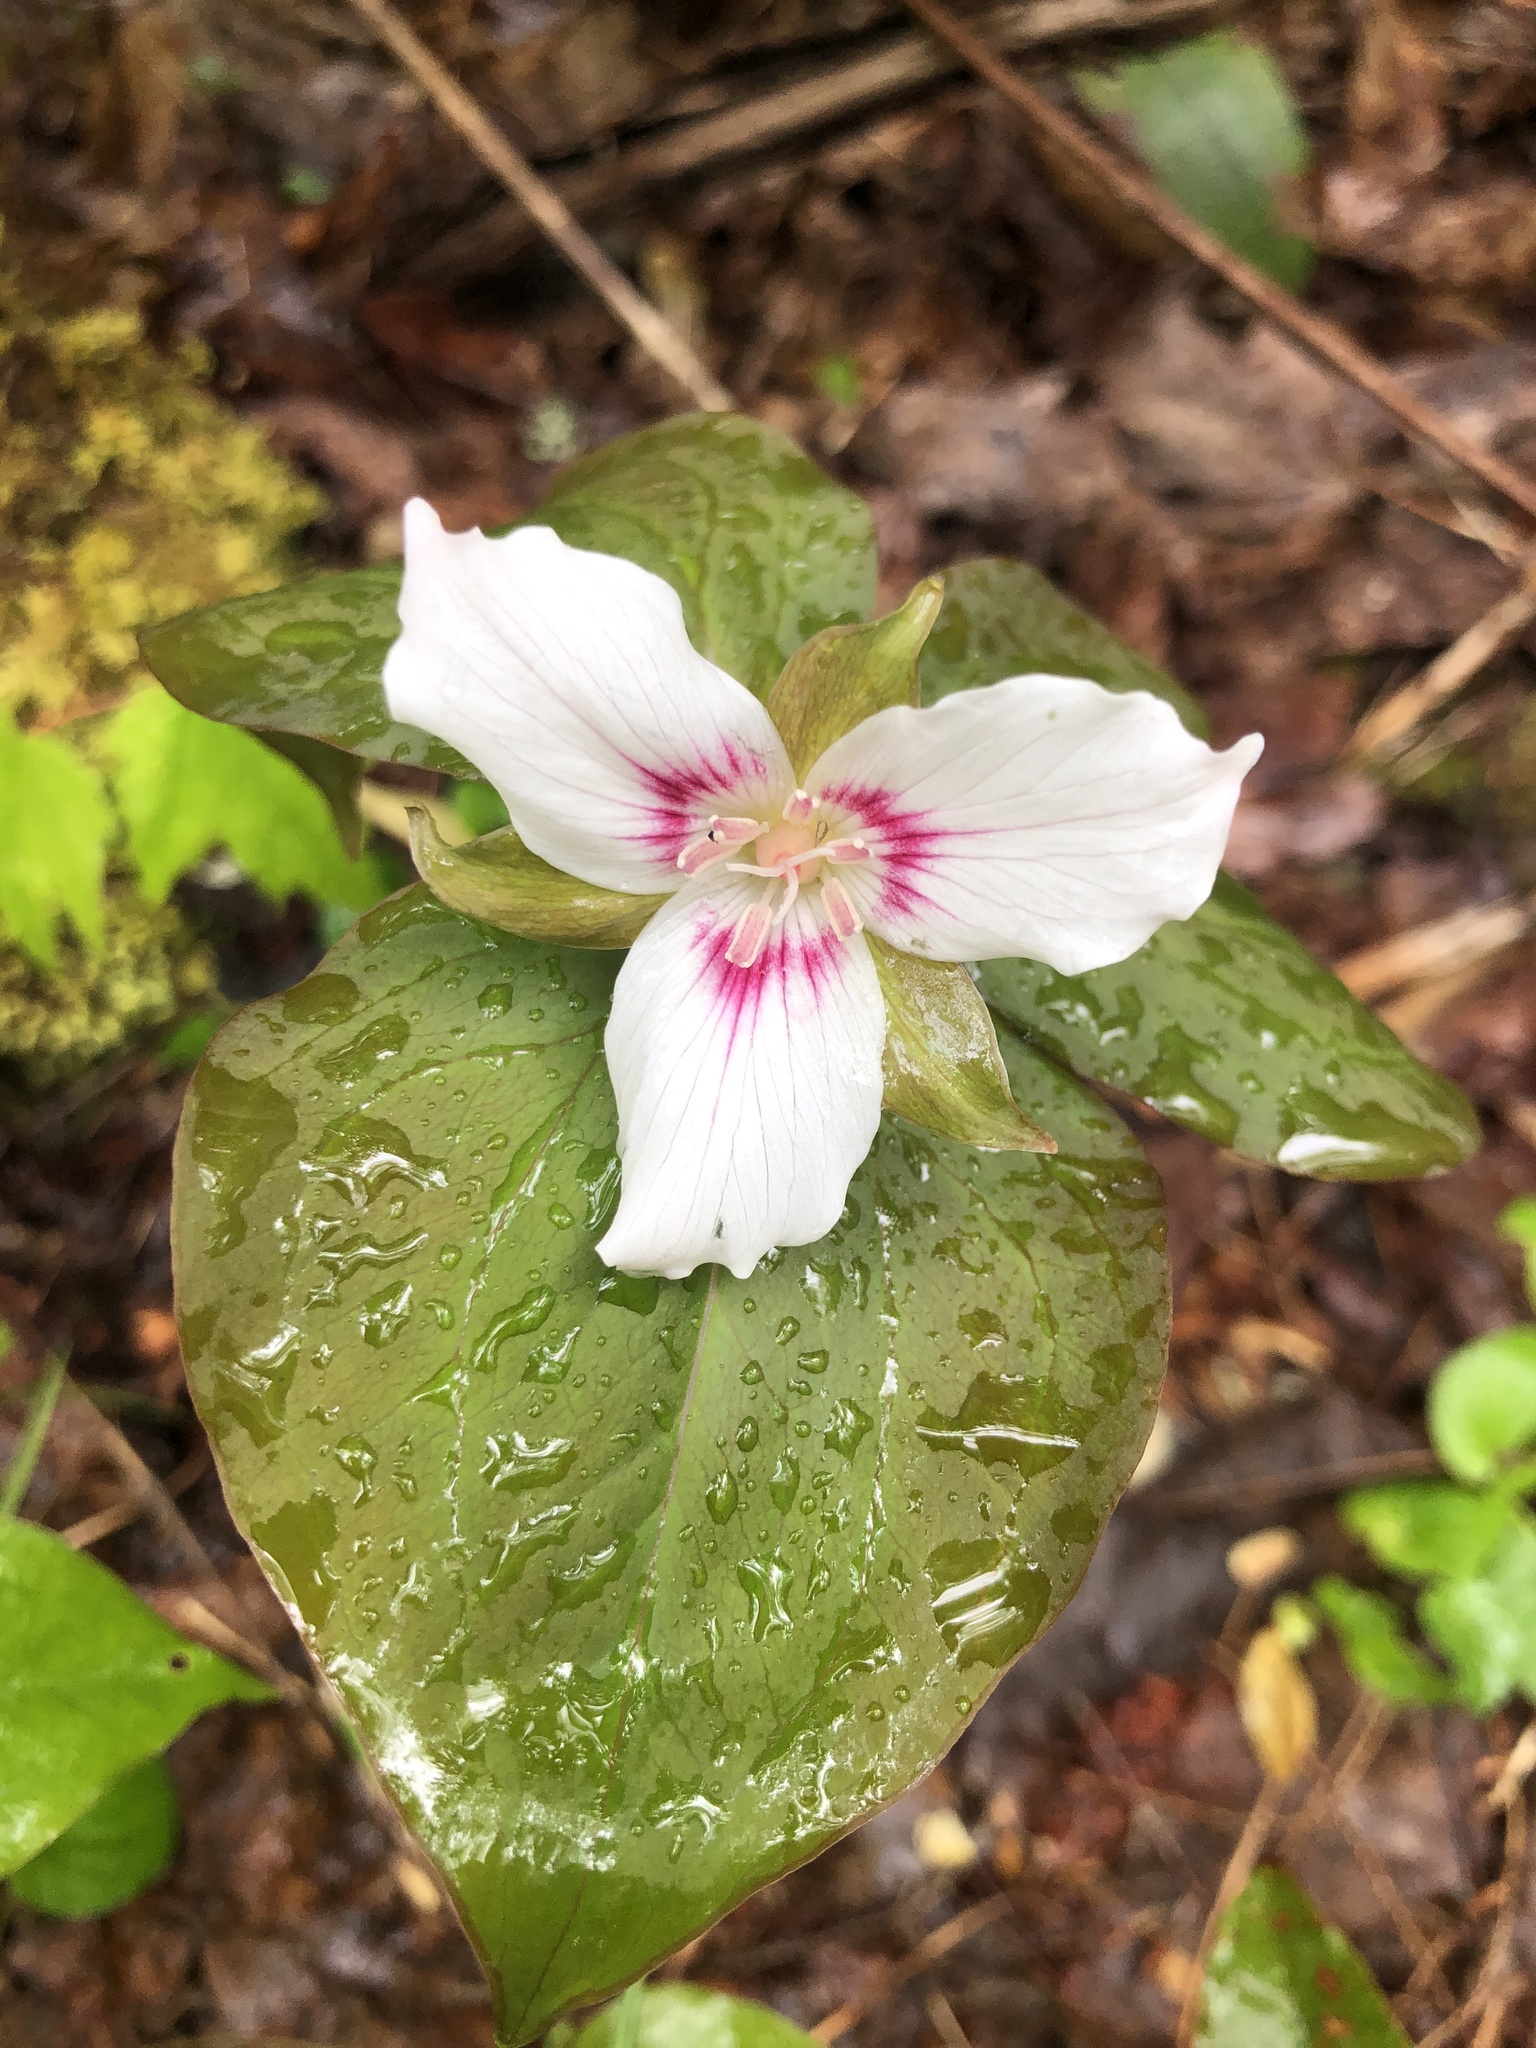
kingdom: Plantae
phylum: Tracheophyta
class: Liliopsida
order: Liliales
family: Melanthiaceae
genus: Trillium
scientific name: Trillium undulatum
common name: Paint trillium
